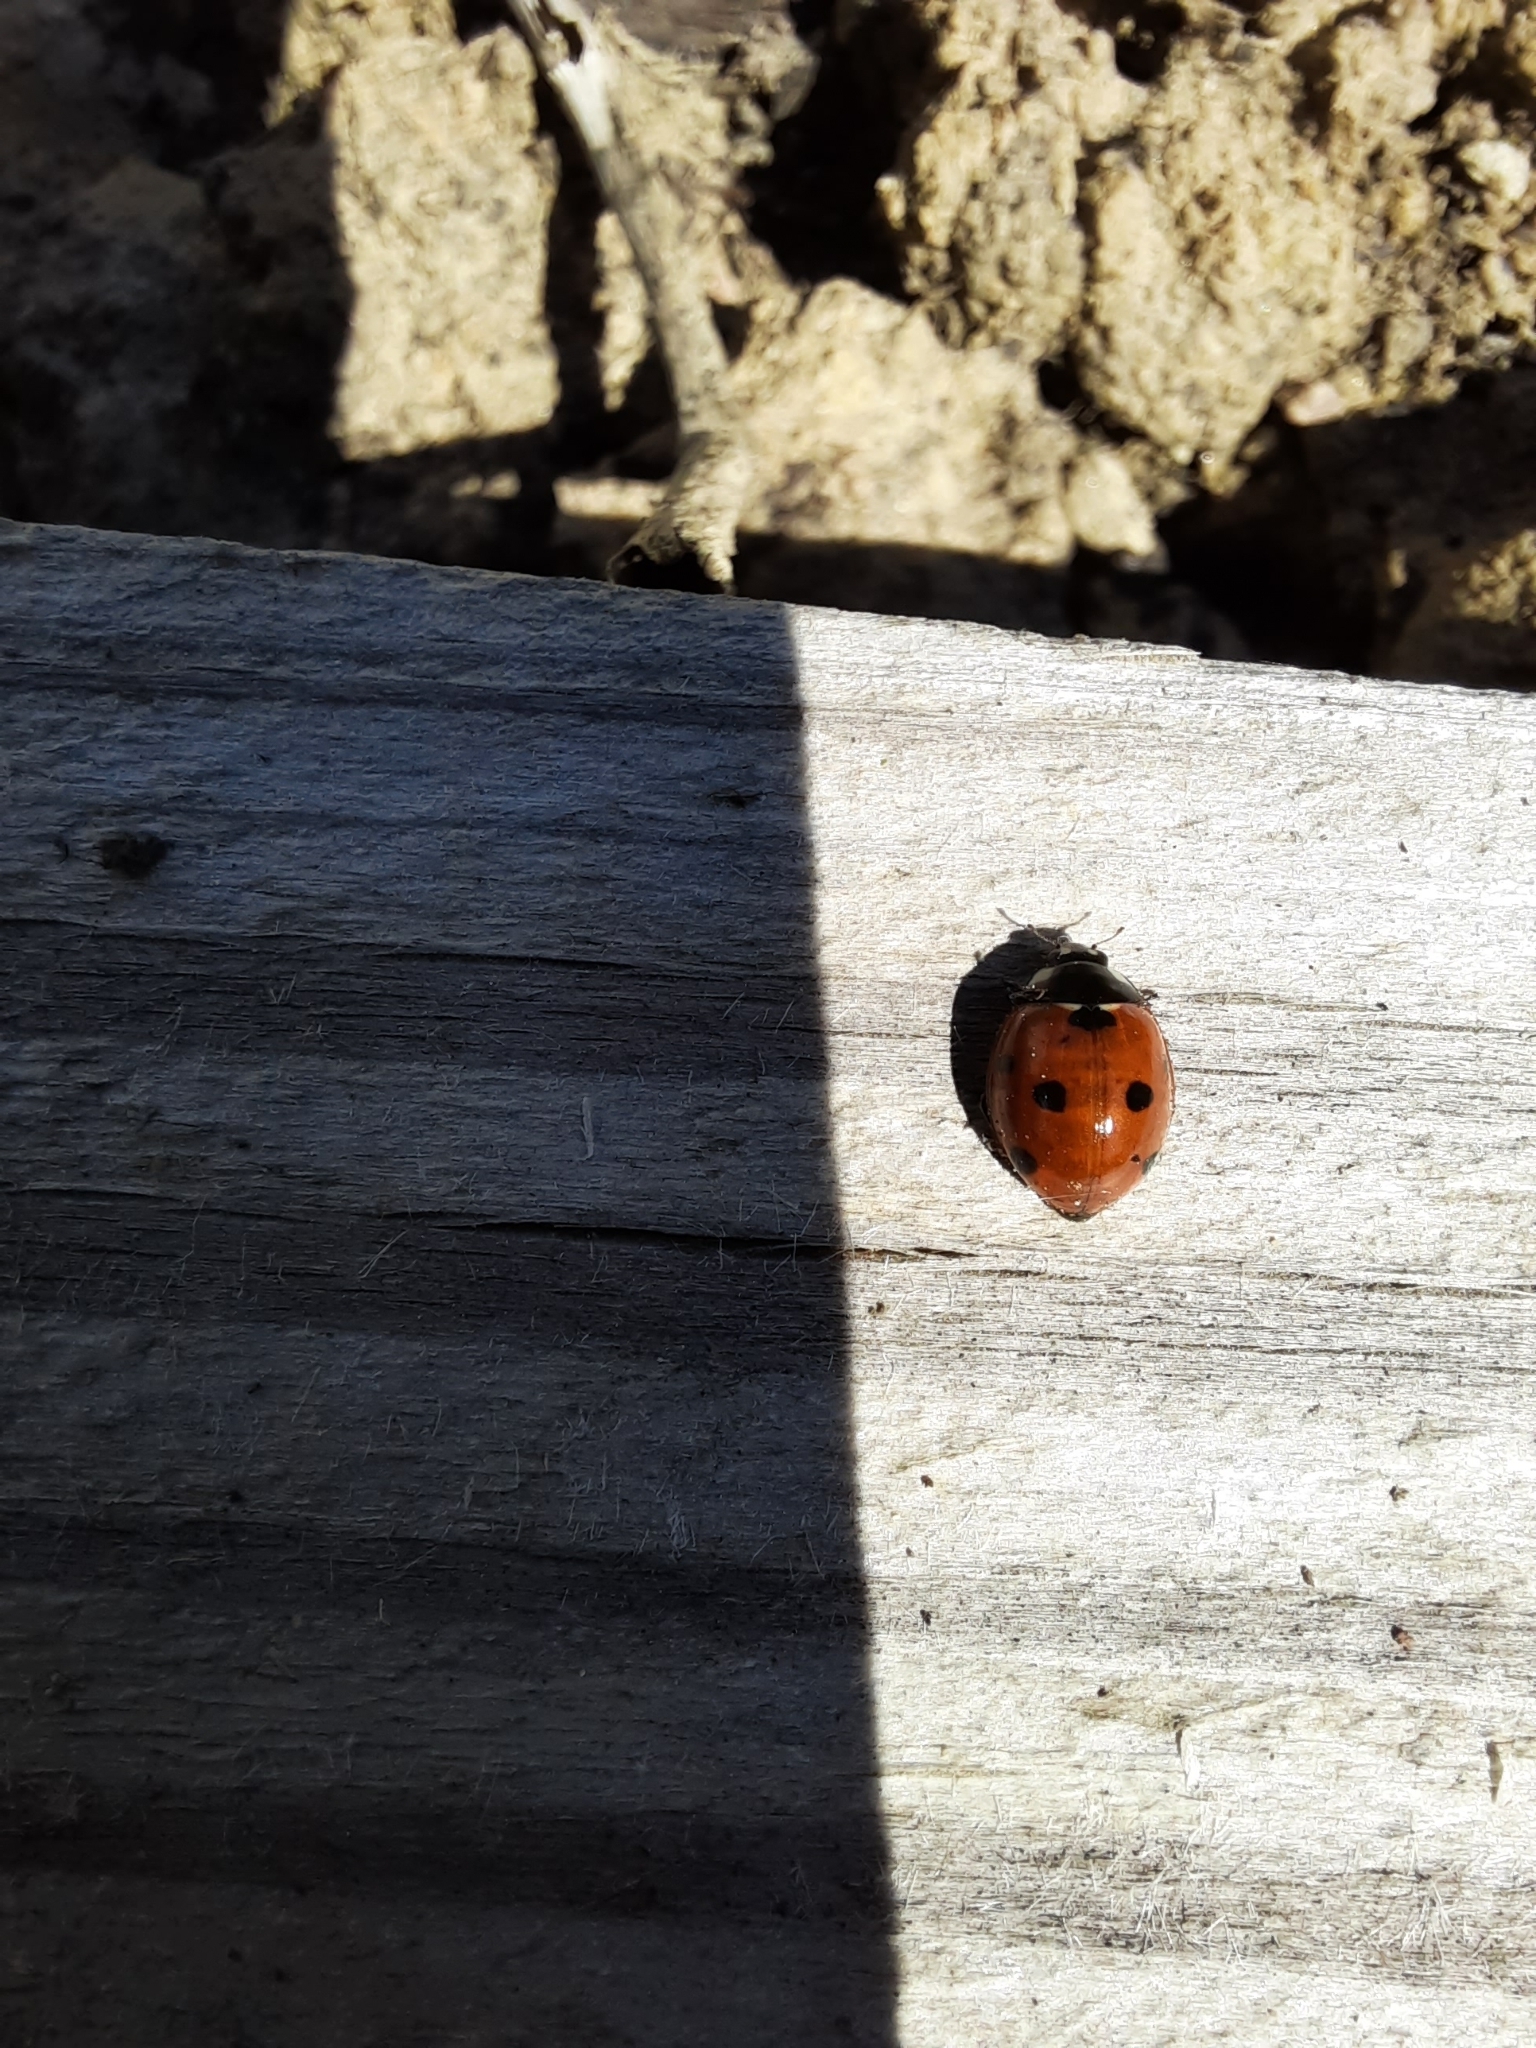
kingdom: Animalia
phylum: Arthropoda
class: Insecta
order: Coleoptera
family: Coccinellidae
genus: Coccinella
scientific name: Coccinella septempunctata
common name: Sevenspotted lady beetle
